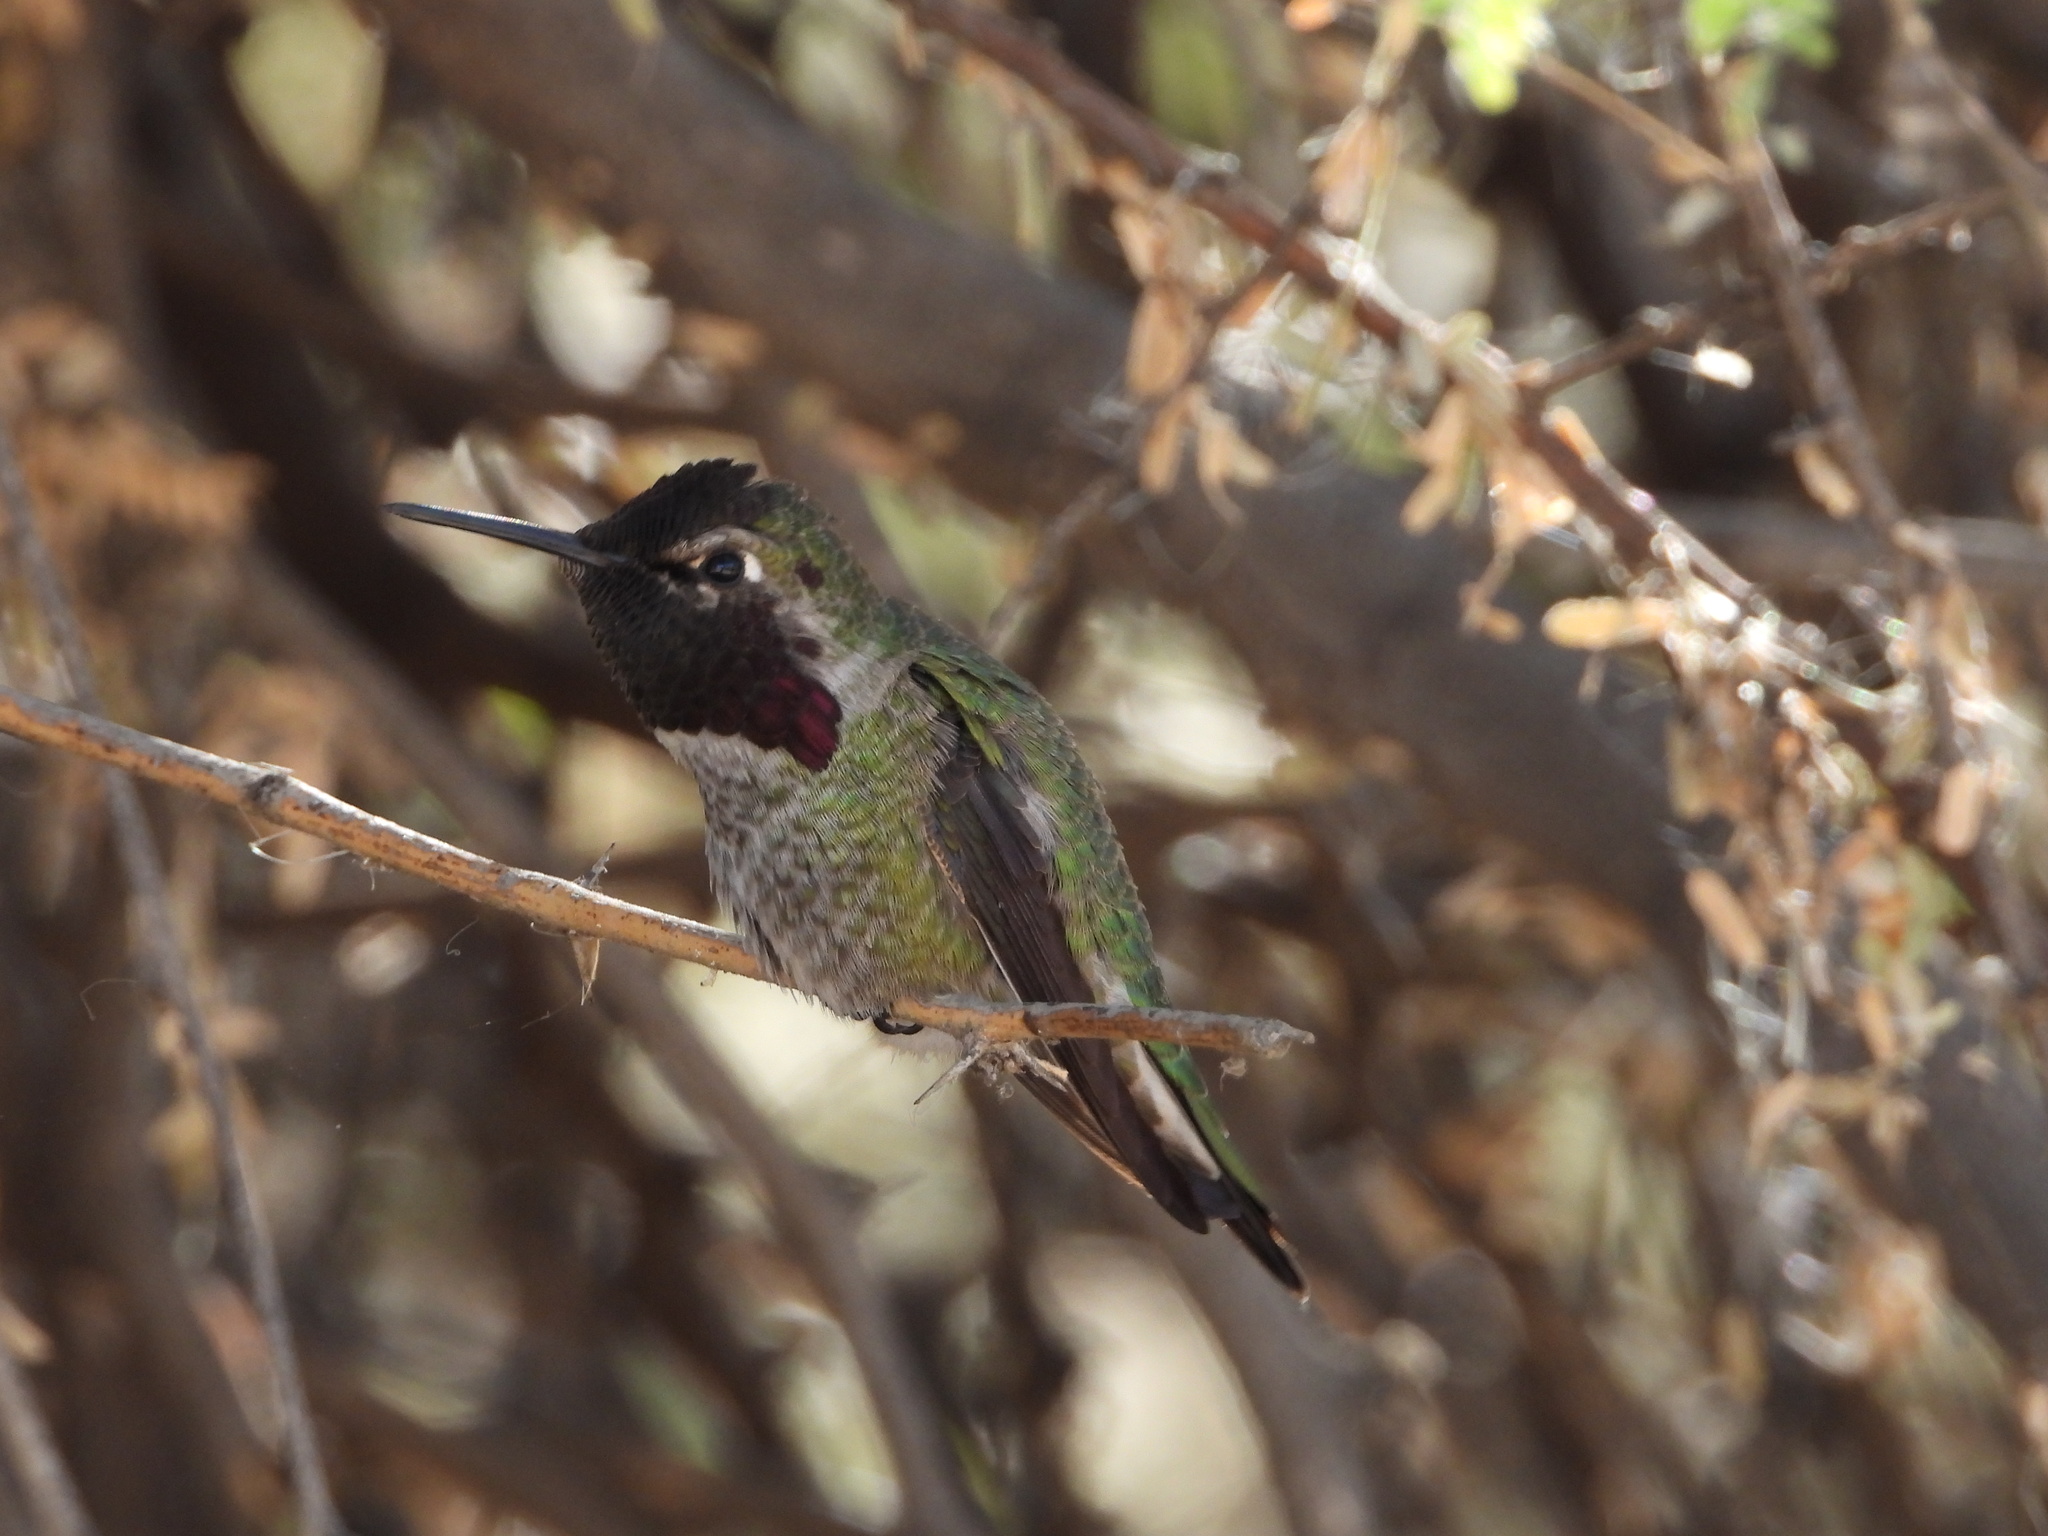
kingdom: Animalia
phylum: Chordata
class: Aves
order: Apodiformes
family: Trochilidae
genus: Calypte
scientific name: Calypte anna
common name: Anna's hummingbird
